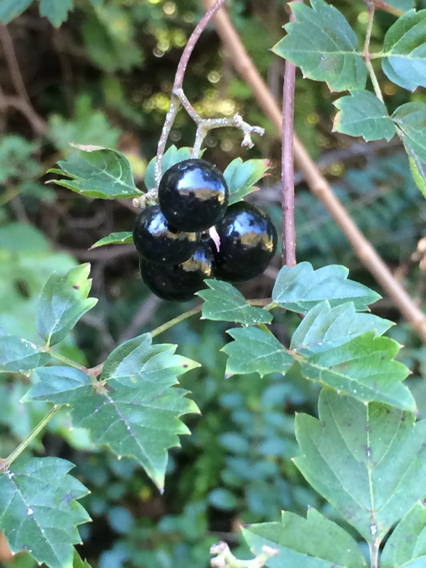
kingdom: Plantae
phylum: Tracheophyta
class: Magnoliopsida
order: Vitales
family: Vitaceae
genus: Nekemias
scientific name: Nekemias arborea
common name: Peppervine
